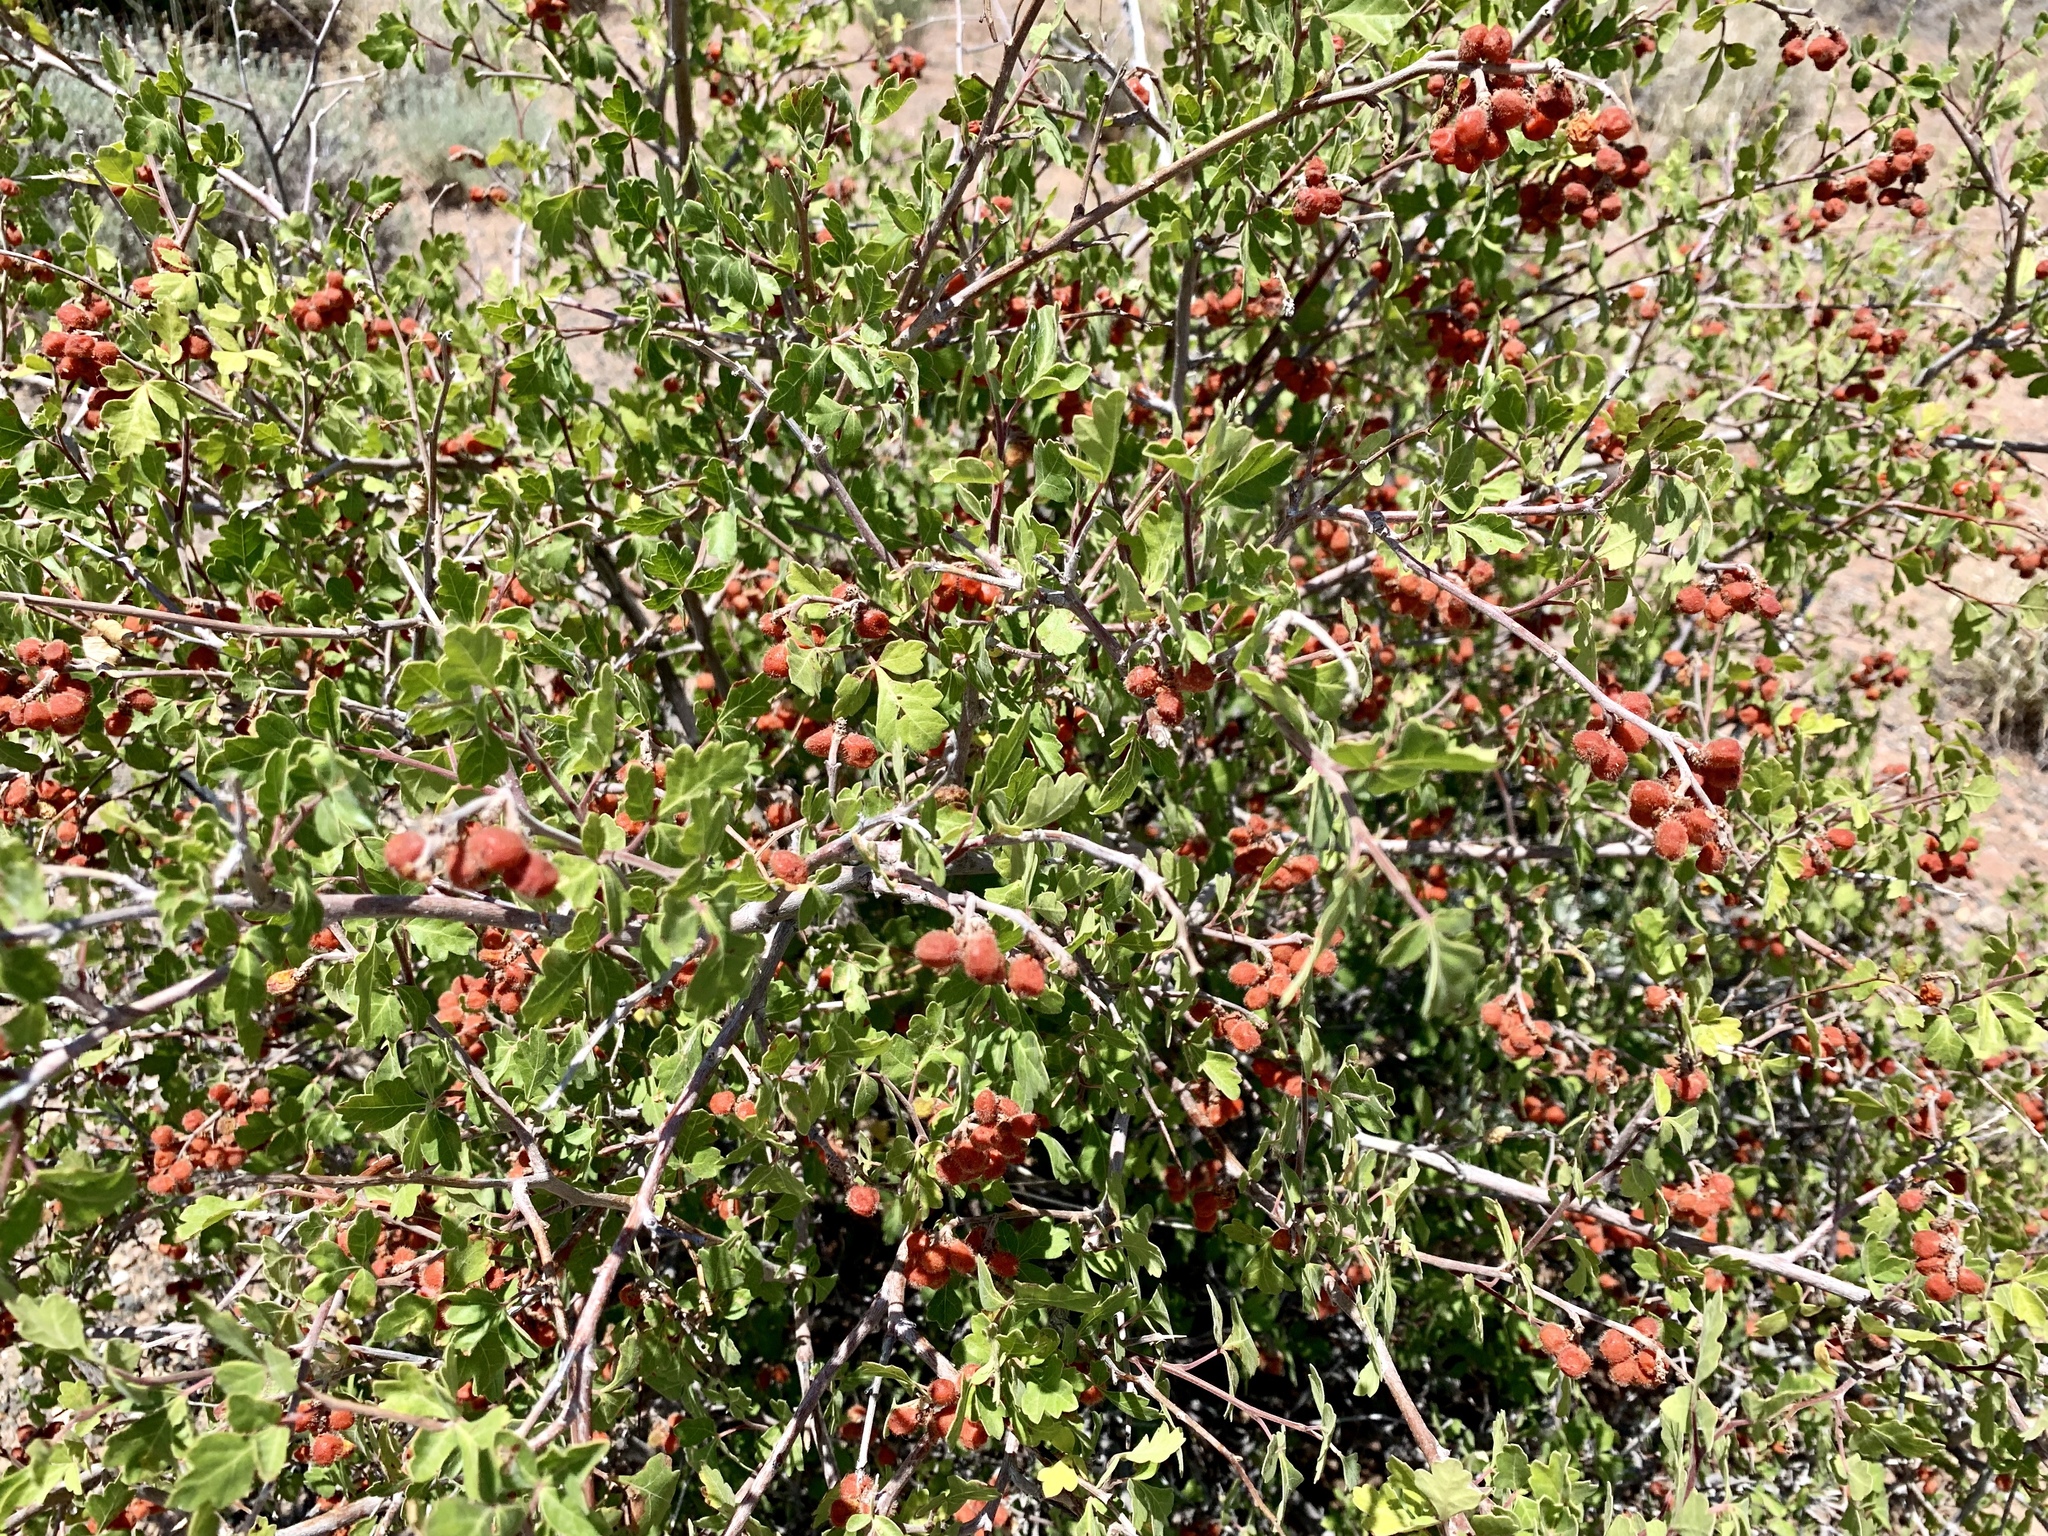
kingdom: Plantae
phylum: Tracheophyta
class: Magnoliopsida
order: Sapindales
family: Anacardiaceae
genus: Rhus
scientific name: Rhus aromatica
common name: Aromatic sumac
